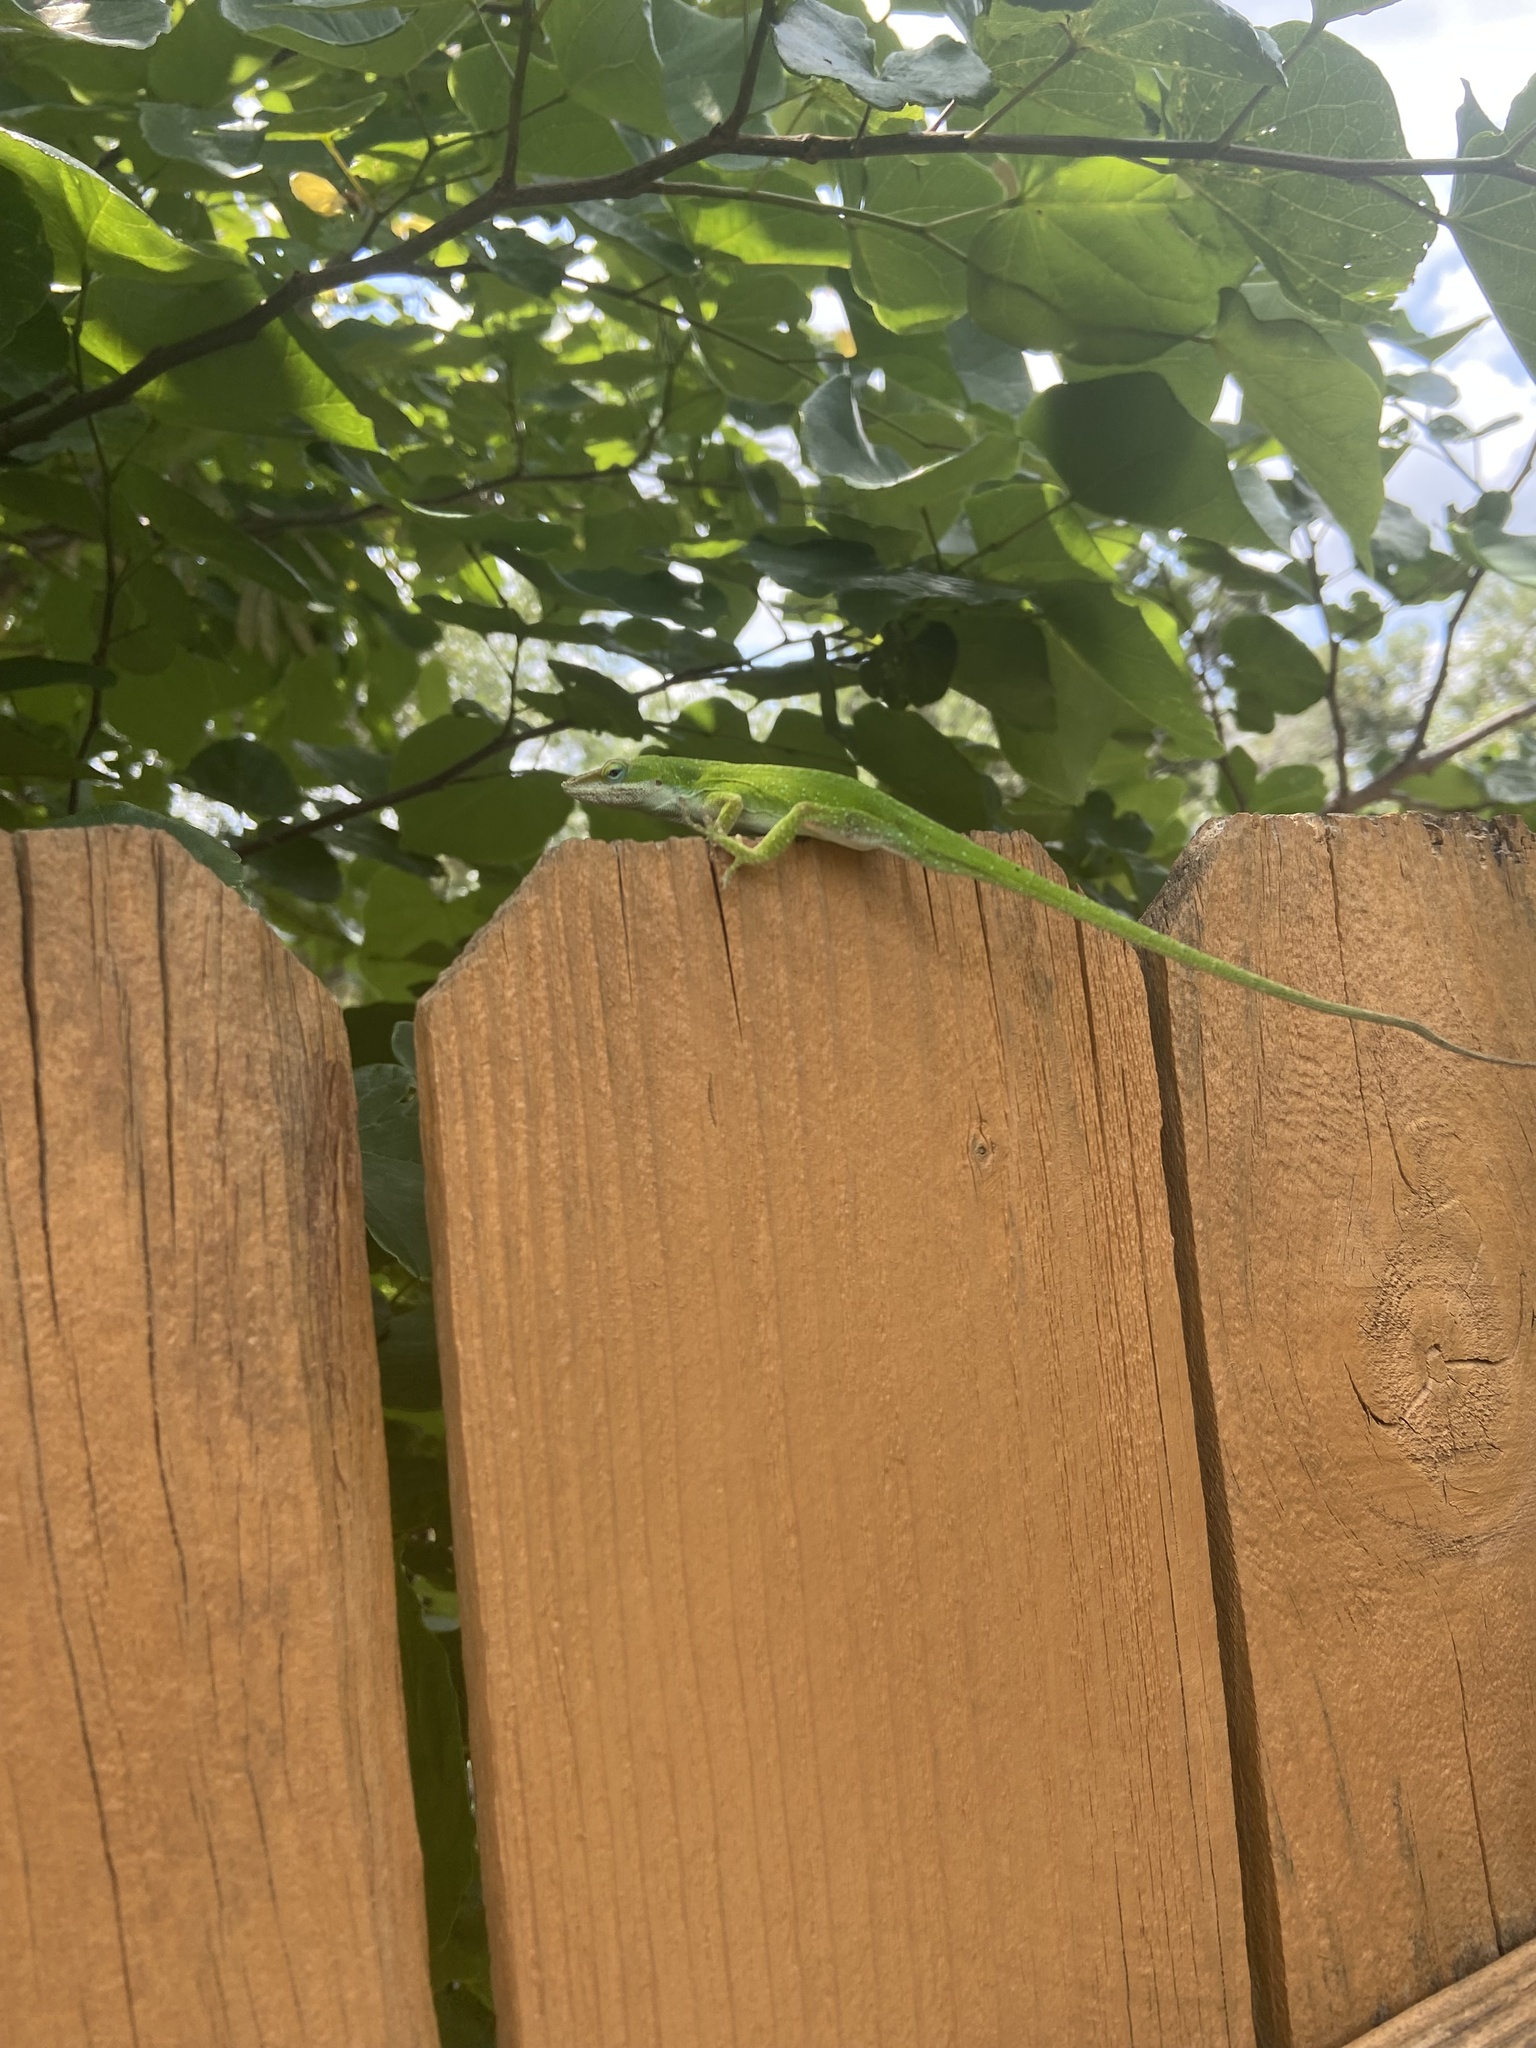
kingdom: Animalia
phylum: Chordata
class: Squamata
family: Dactyloidae
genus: Anolis
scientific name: Anolis carolinensis
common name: Green anole
